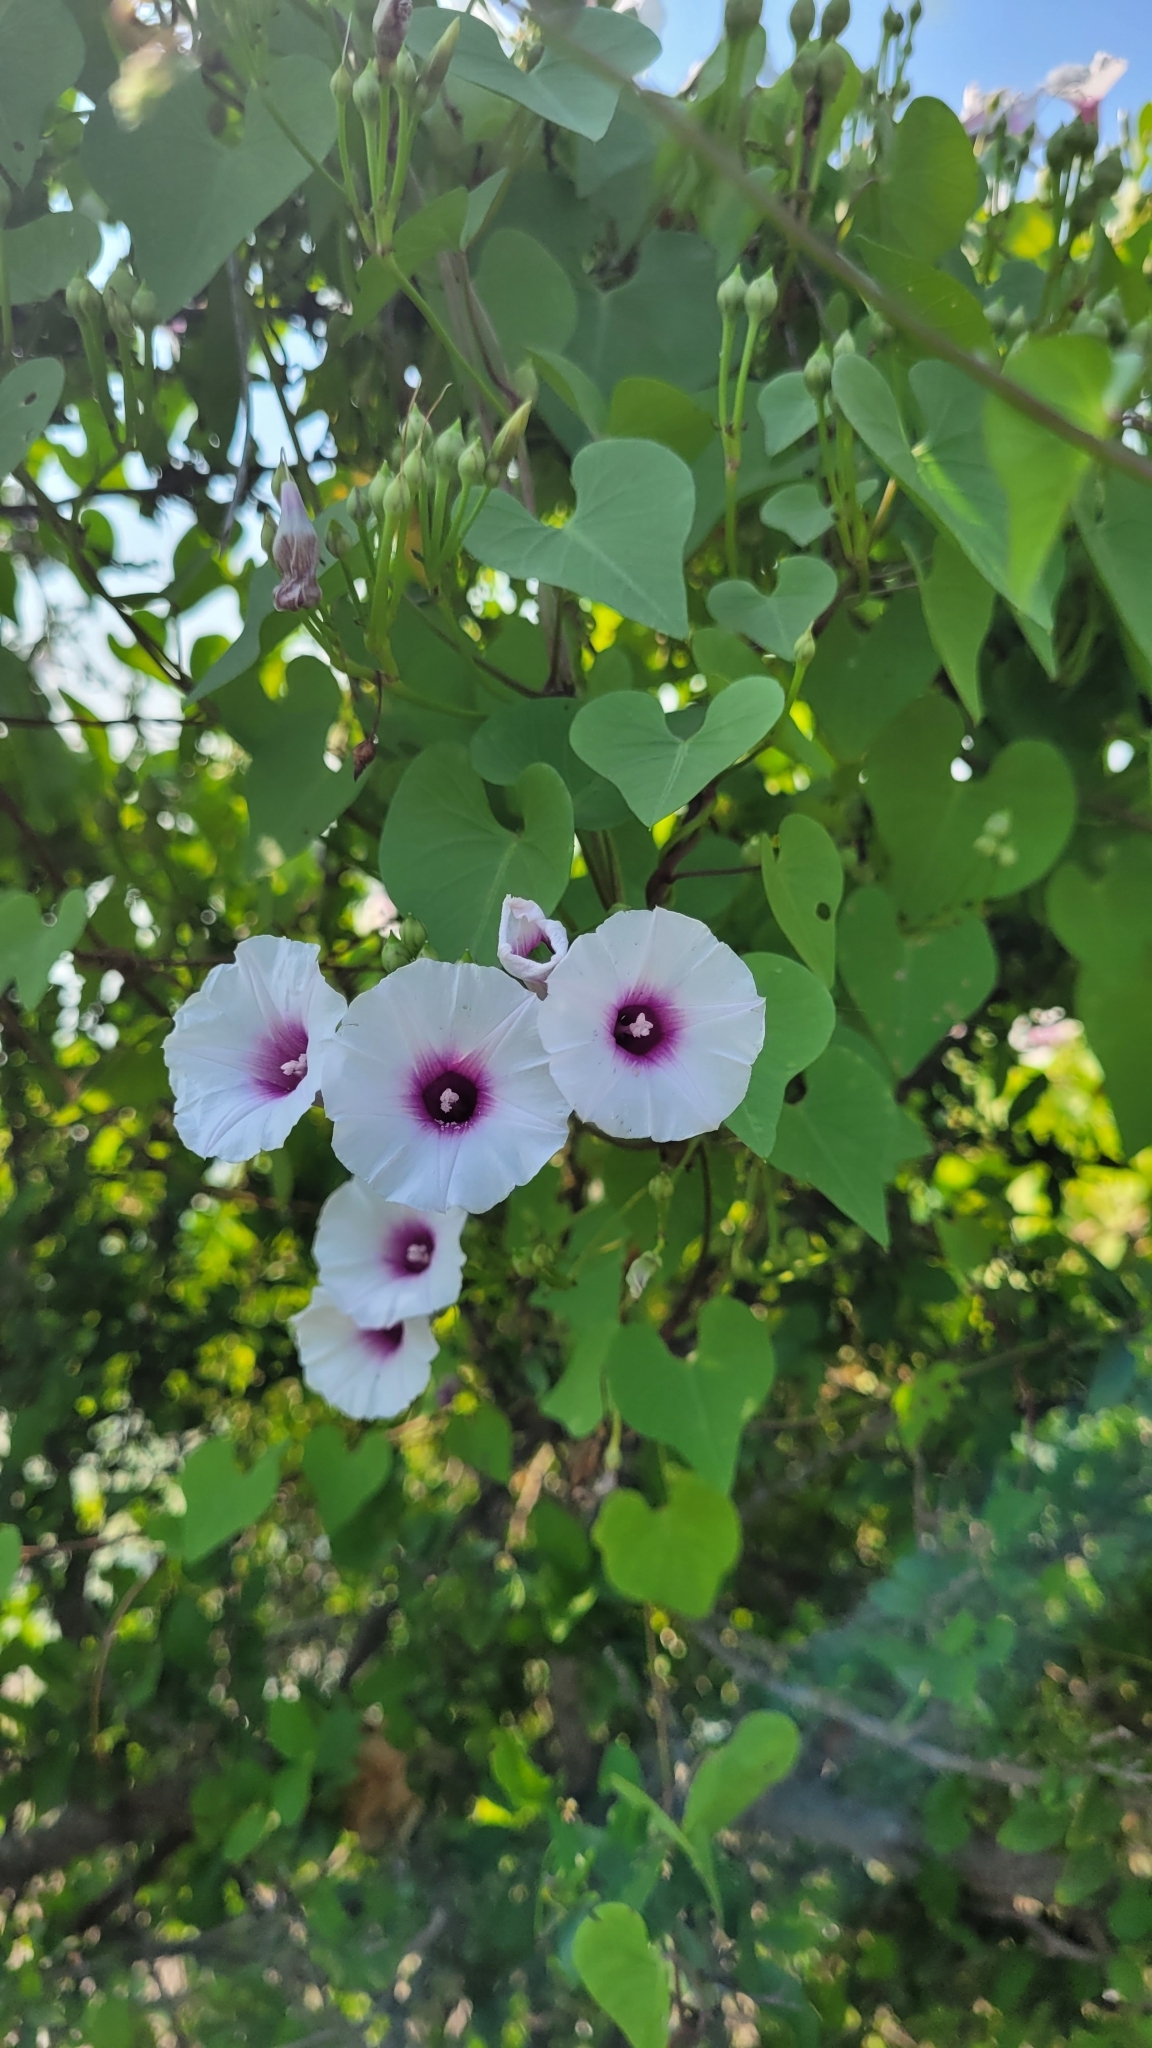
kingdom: Plantae
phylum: Tracheophyta
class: Magnoliopsida
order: Solanales
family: Convolvulaceae
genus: Ipomoea
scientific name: Ipomoea amnicola
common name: Redcenter morning-glory
